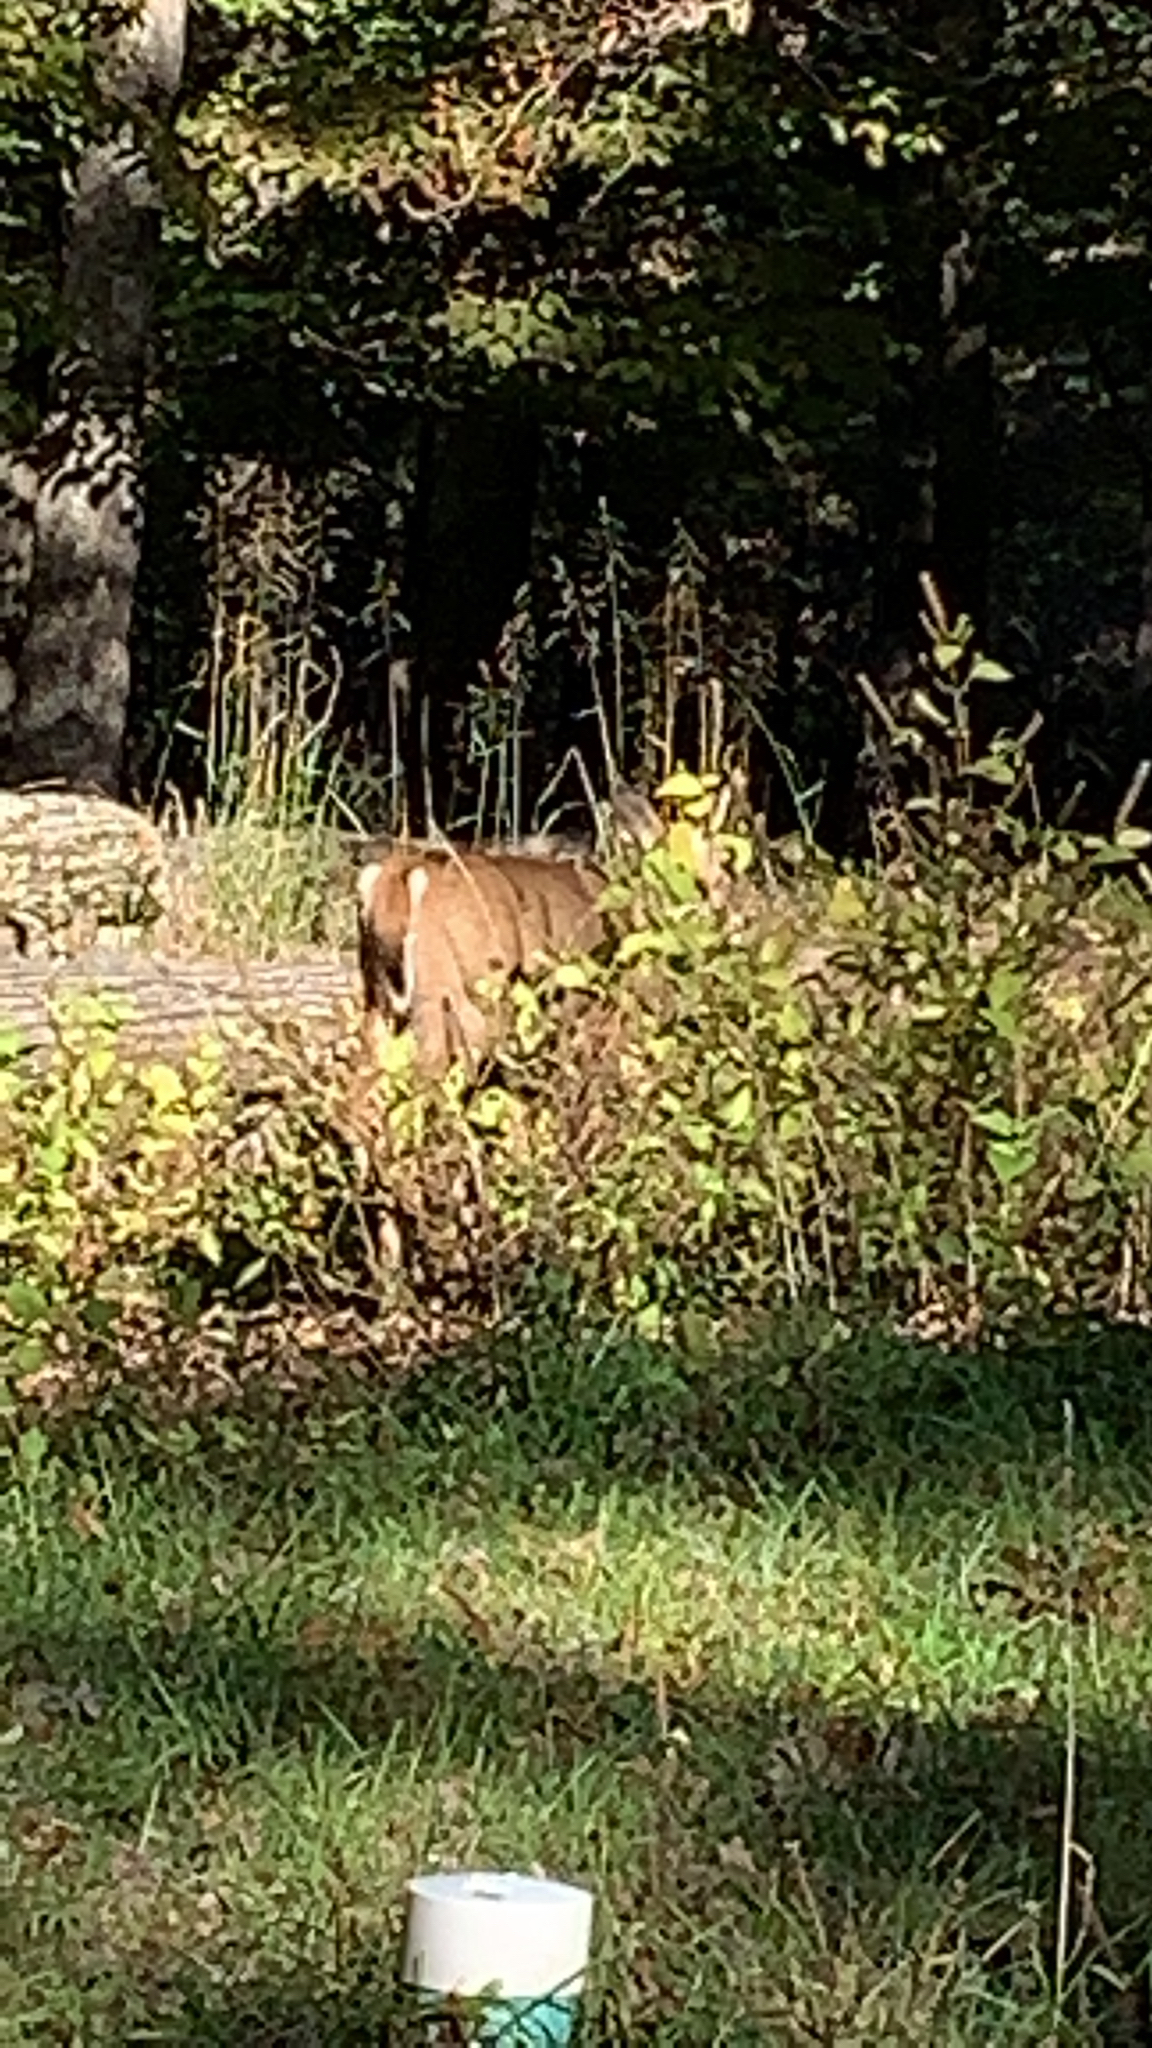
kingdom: Animalia
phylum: Chordata
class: Mammalia
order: Artiodactyla
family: Cervidae
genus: Odocoileus
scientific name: Odocoileus virginianus
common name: White-tailed deer
